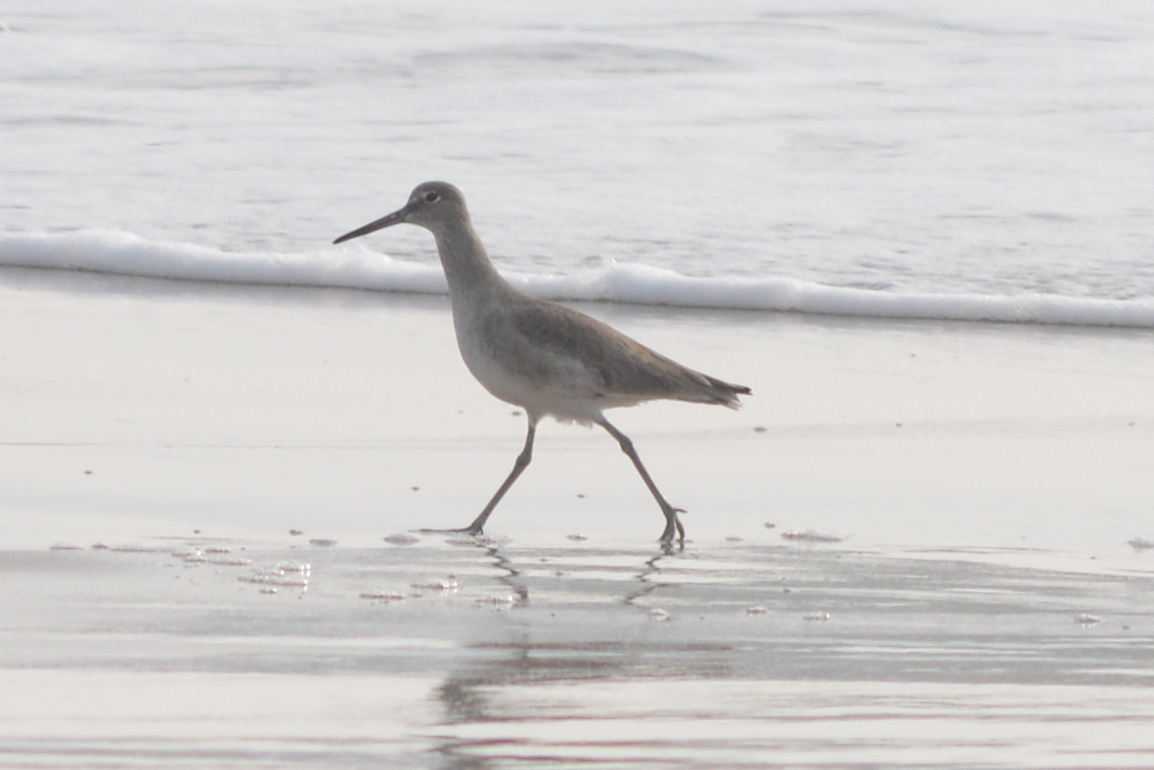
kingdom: Animalia
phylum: Chordata
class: Aves
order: Charadriiformes
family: Scolopacidae
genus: Tringa
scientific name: Tringa semipalmata
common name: Willet
